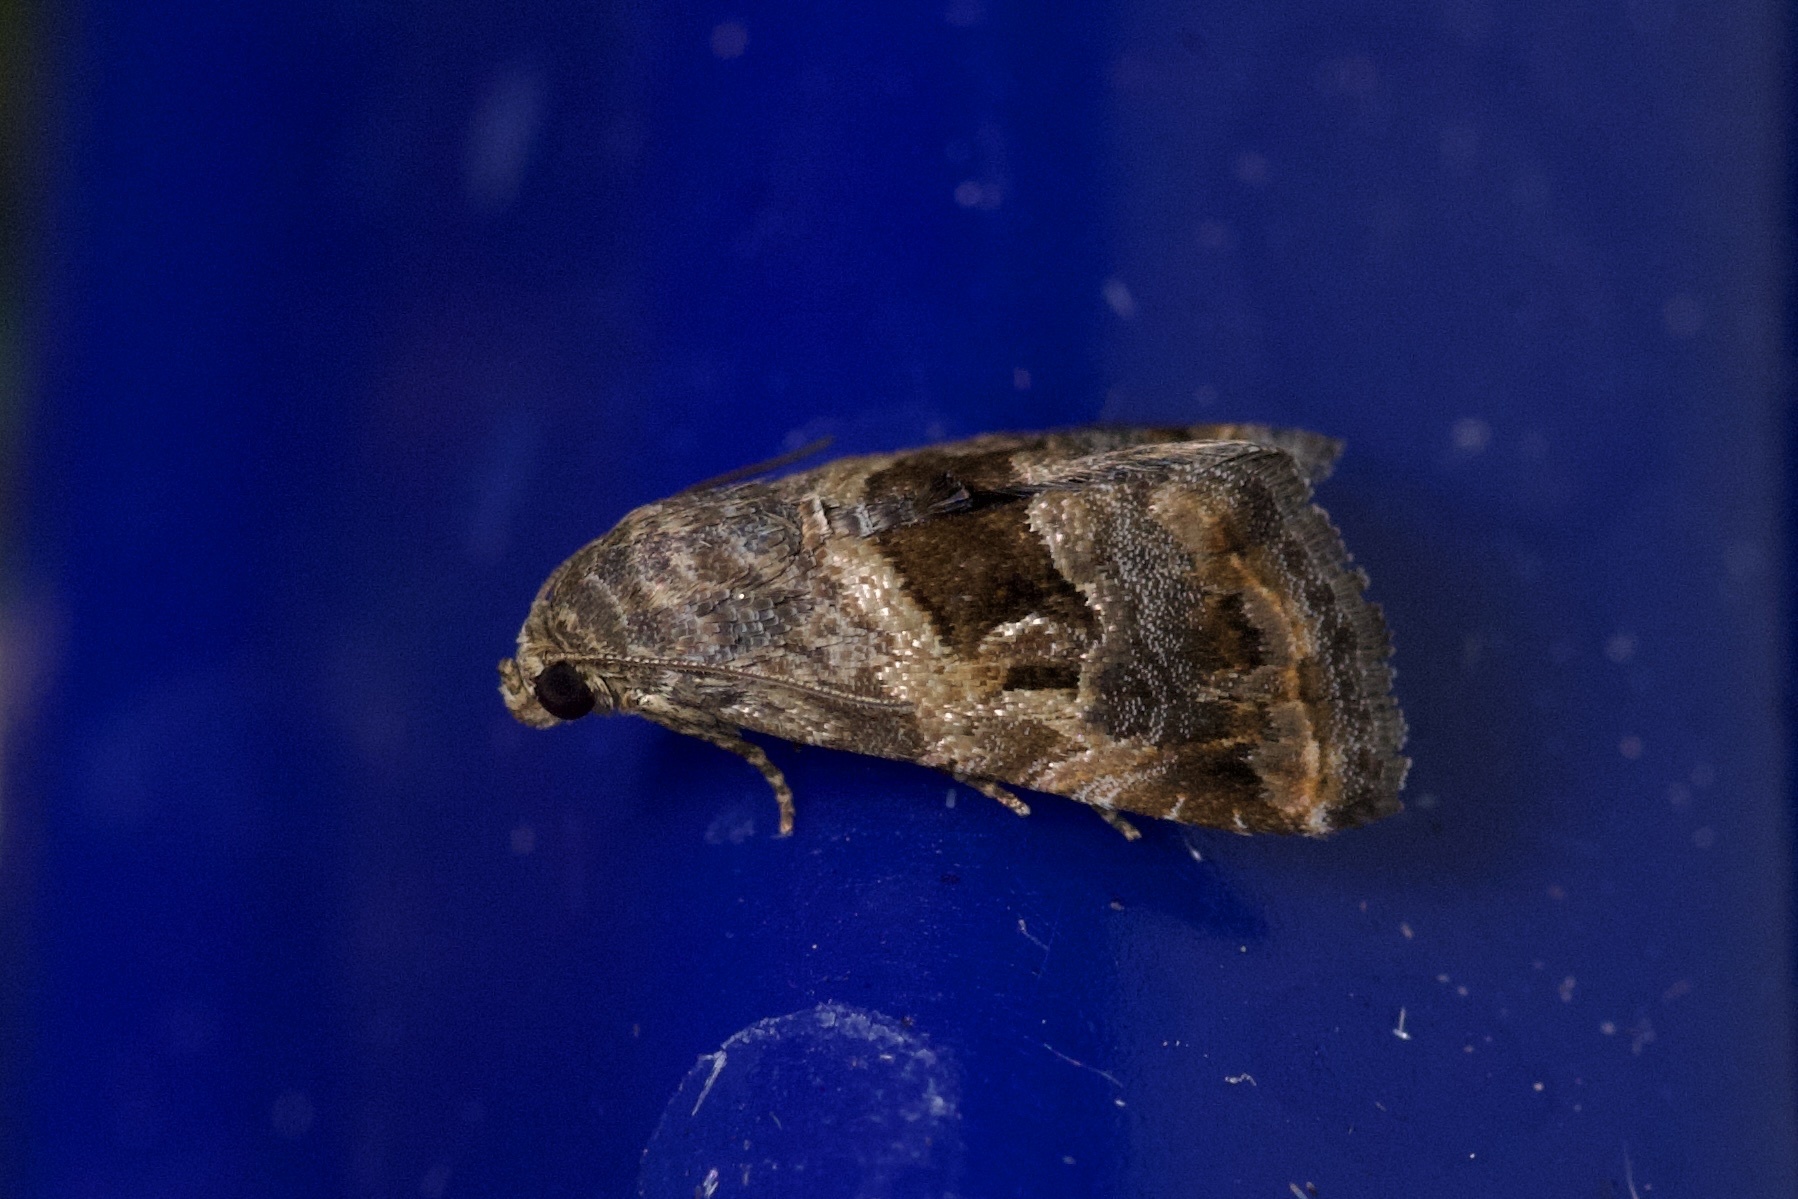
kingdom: Animalia
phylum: Arthropoda
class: Insecta
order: Lepidoptera
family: Noctuidae
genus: Tripudia
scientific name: Tripudia quadrifera
